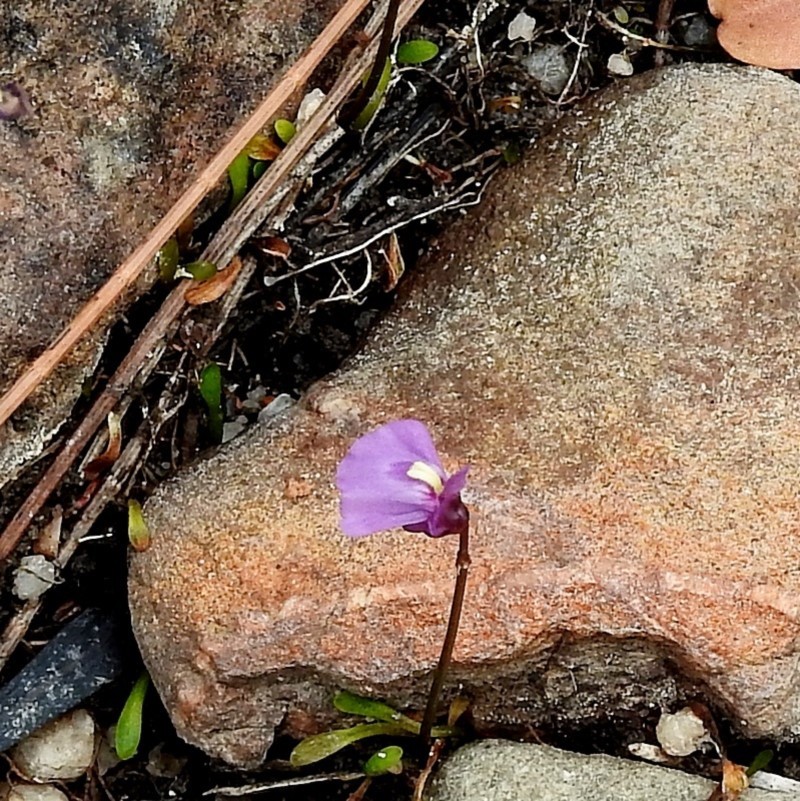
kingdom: Plantae
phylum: Tracheophyta
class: Magnoliopsida
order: Lamiales
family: Lentibulariaceae
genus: Utricularia
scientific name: Utricularia dichotoma
